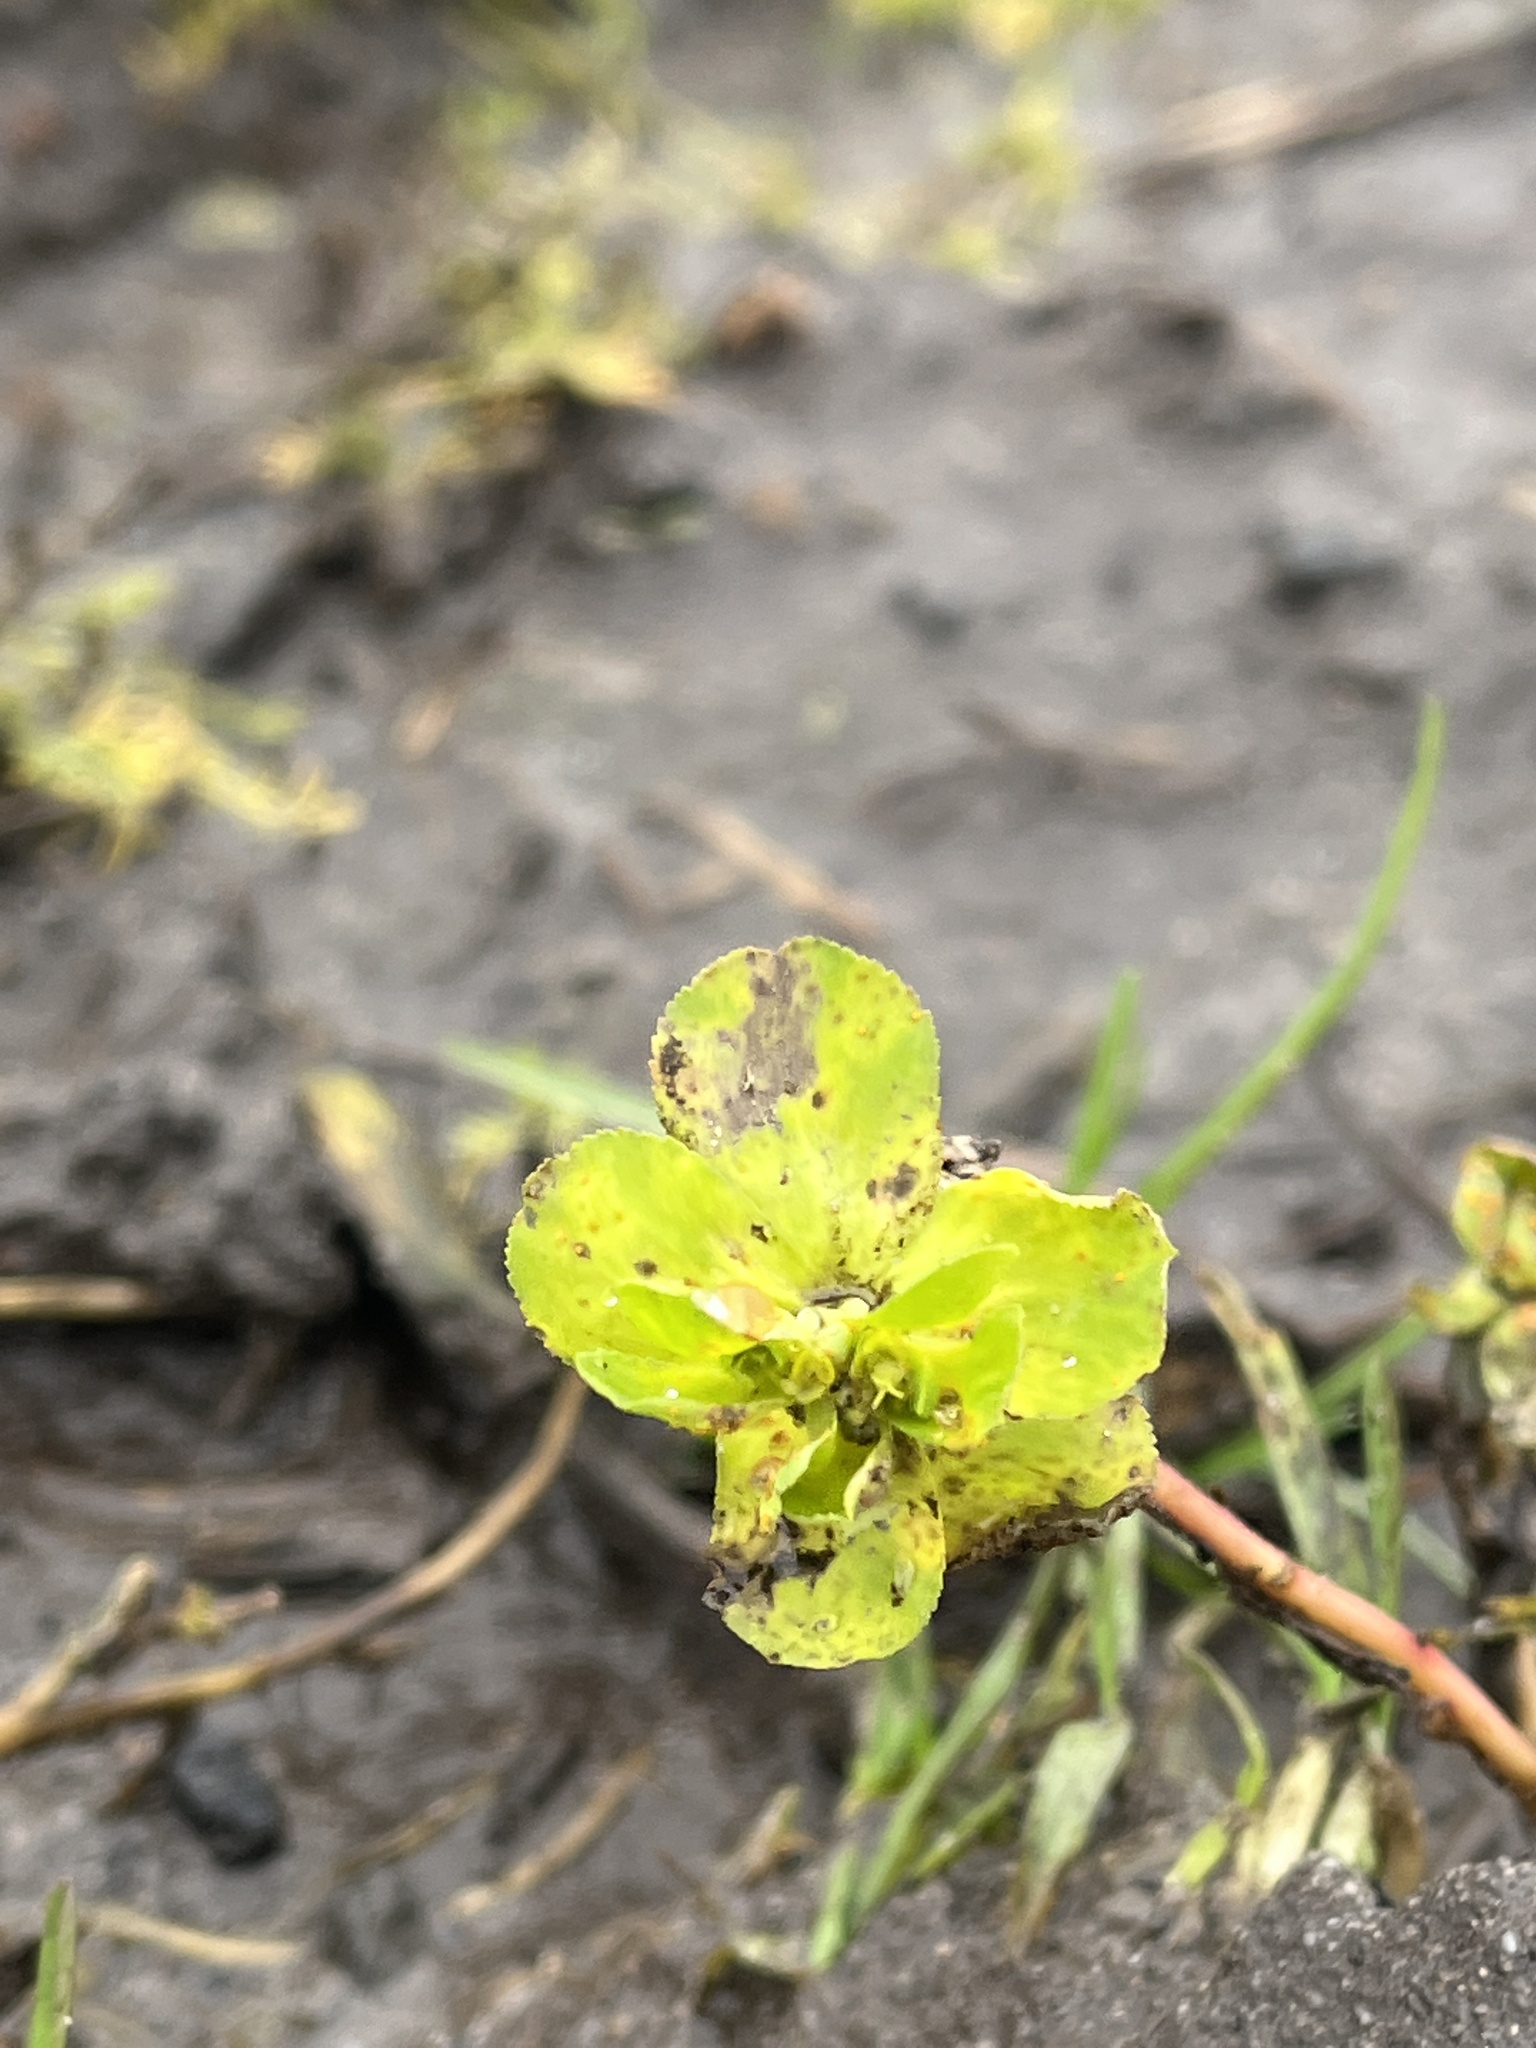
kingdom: Plantae
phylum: Tracheophyta
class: Magnoliopsida
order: Malpighiales
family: Euphorbiaceae
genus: Euphorbia
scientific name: Euphorbia helioscopia
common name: Sun spurge
